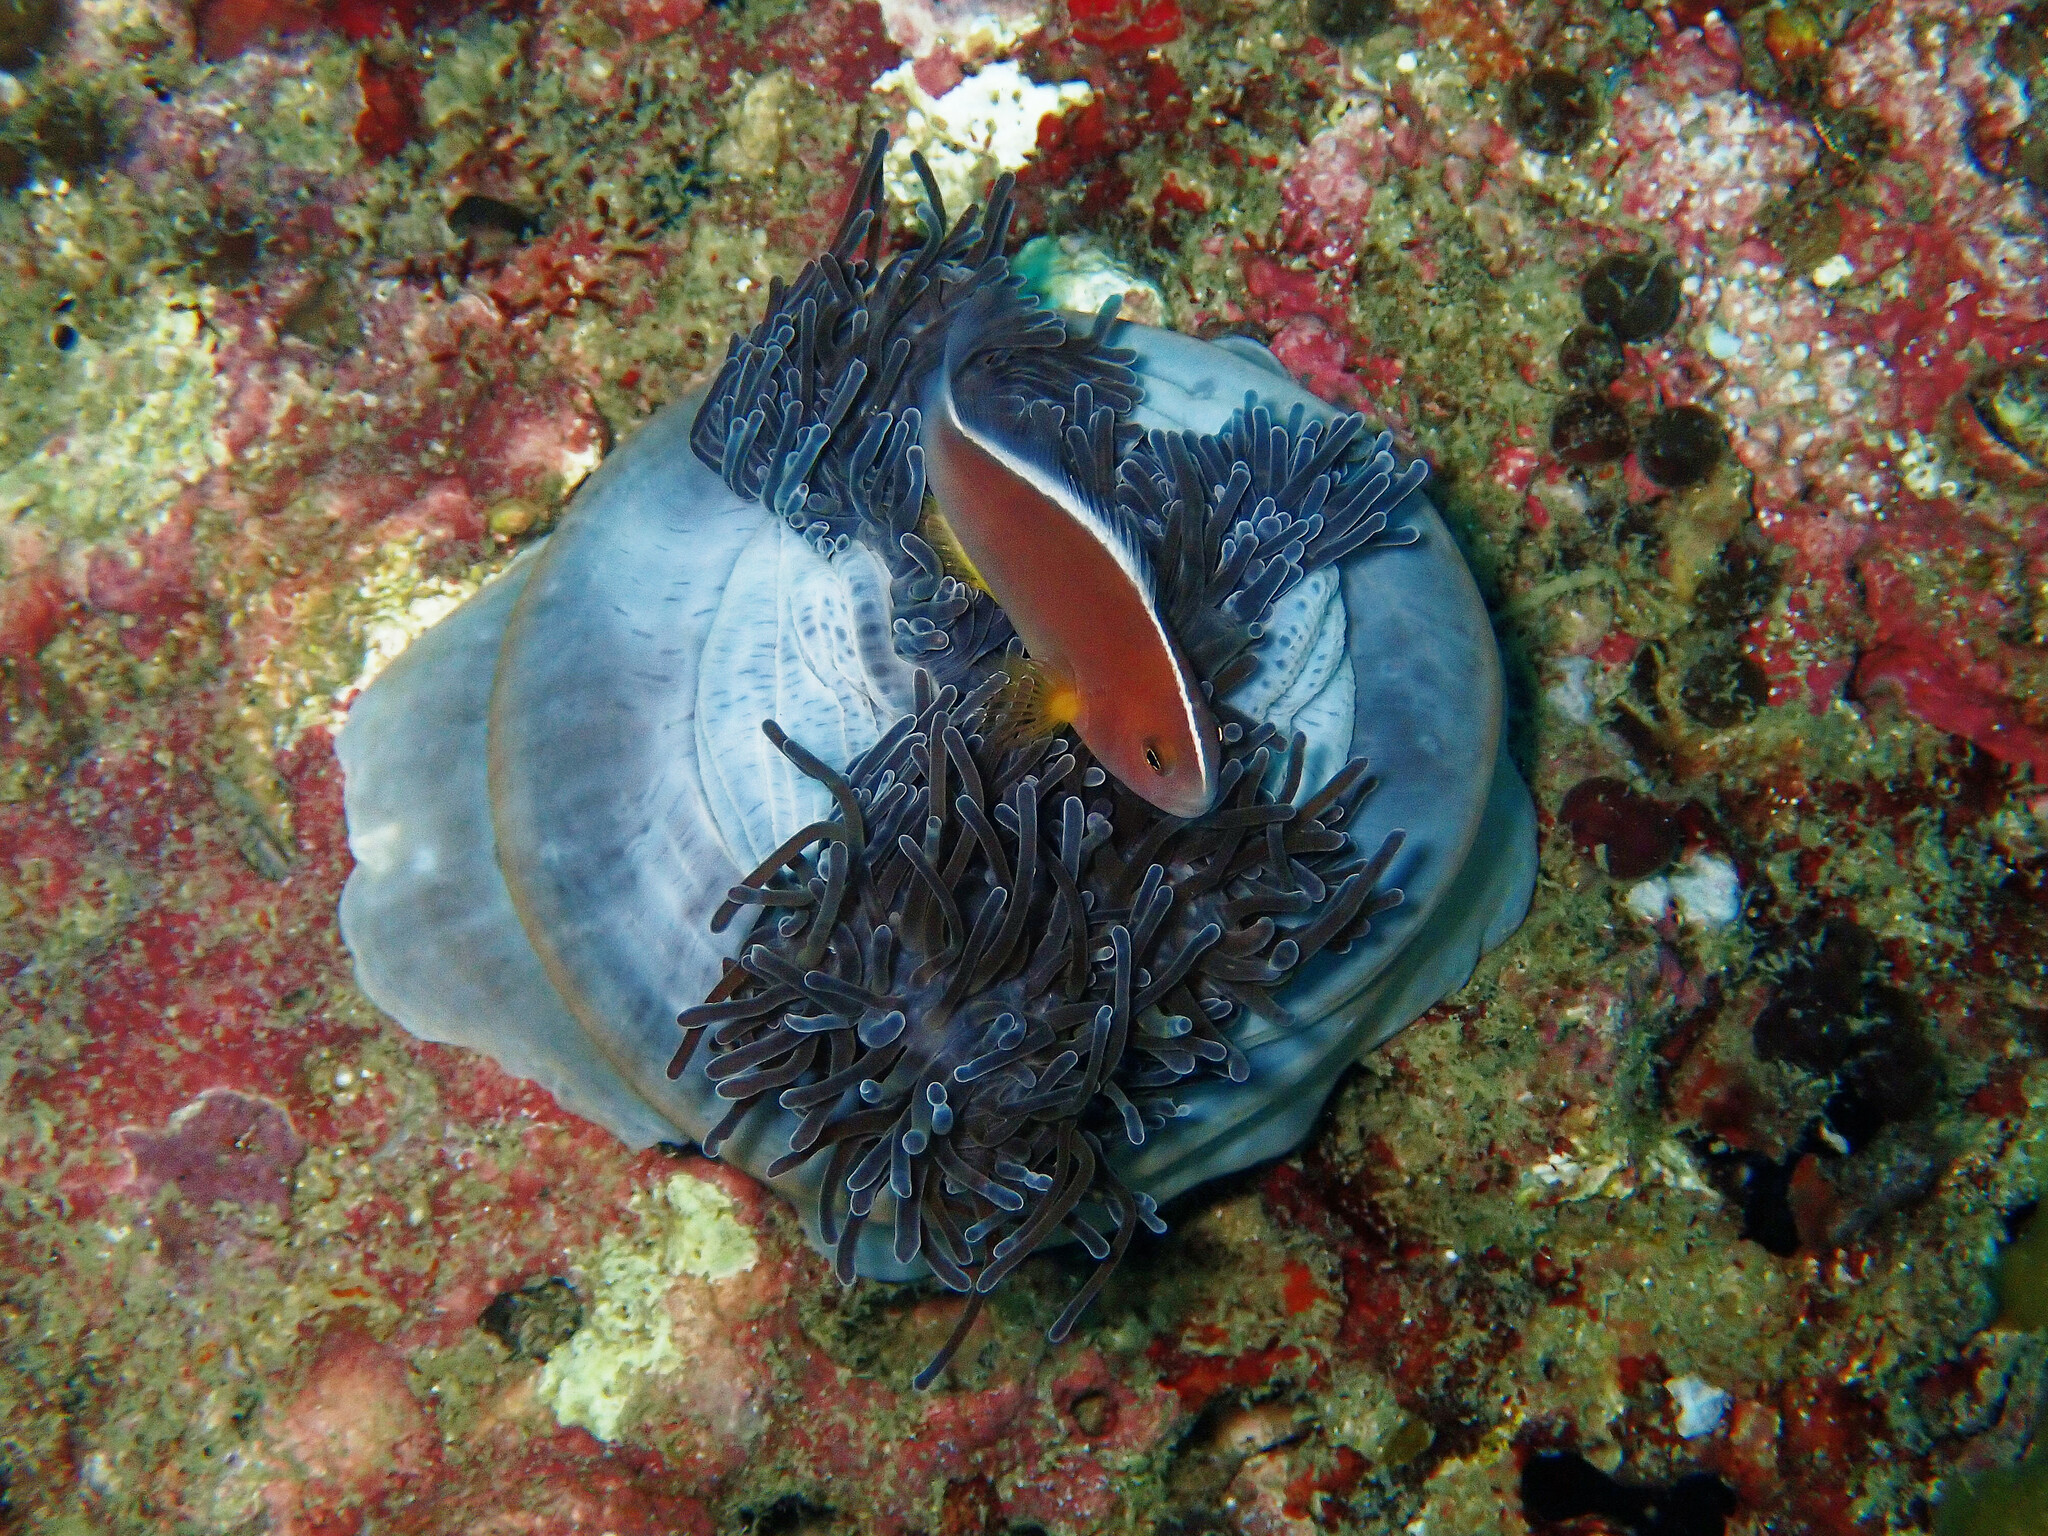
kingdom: Animalia
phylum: Cnidaria
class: Anthozoa
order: Actiniaria
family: Stichodactylidae
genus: Radianthus
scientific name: Radianthus magnifica
